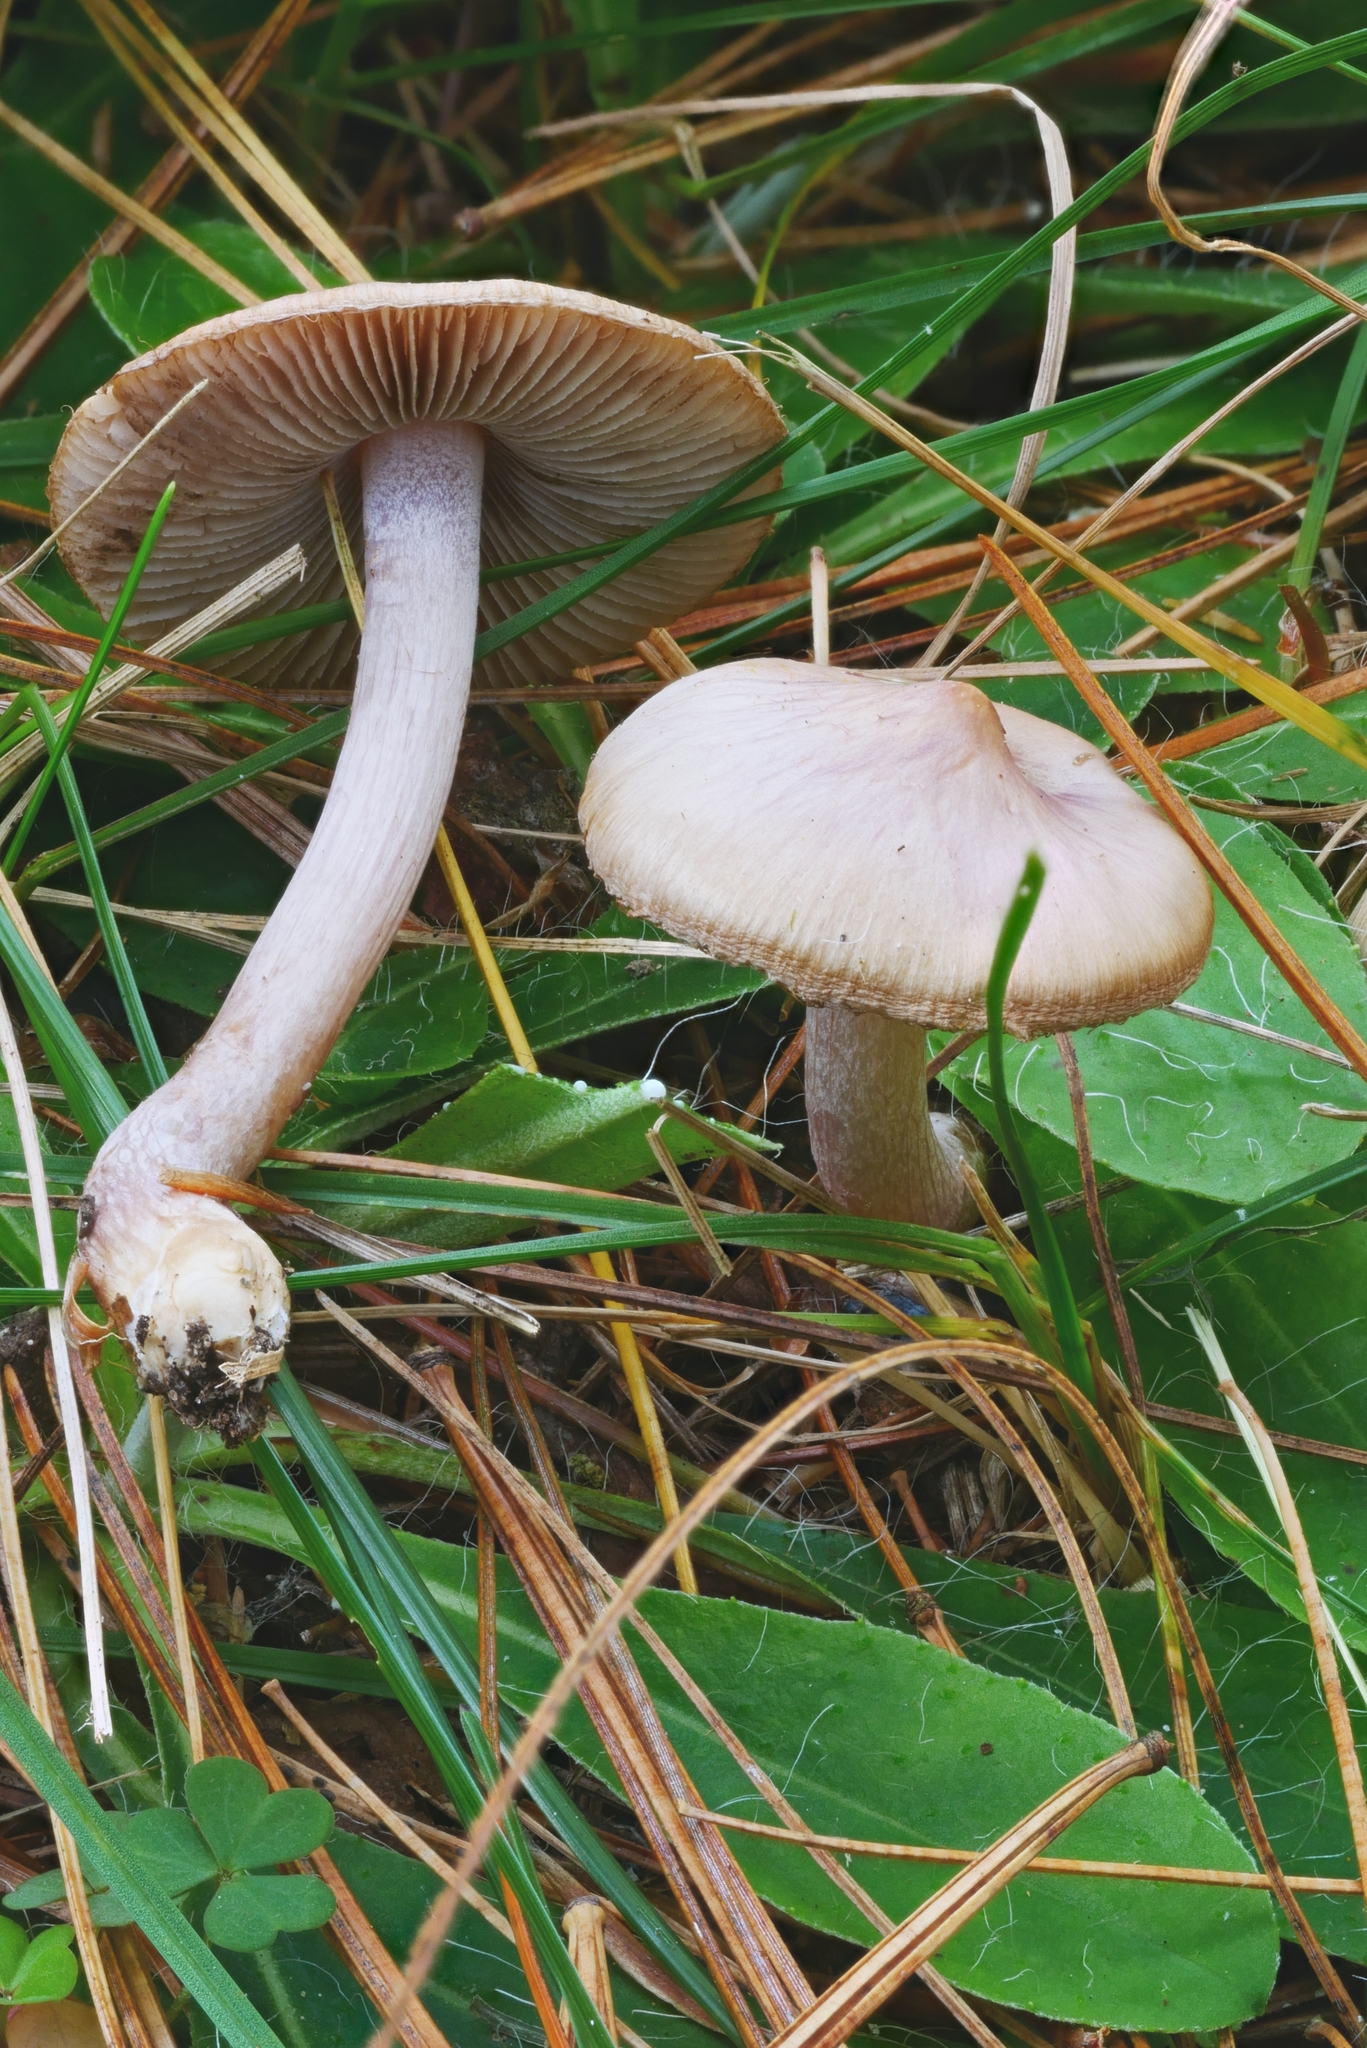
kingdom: Fungi
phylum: Basidiomycota
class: Agaricomycetes
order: Agaricales
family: Inocybaceae
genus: Inocybe
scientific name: Inocybe pallidicremea
